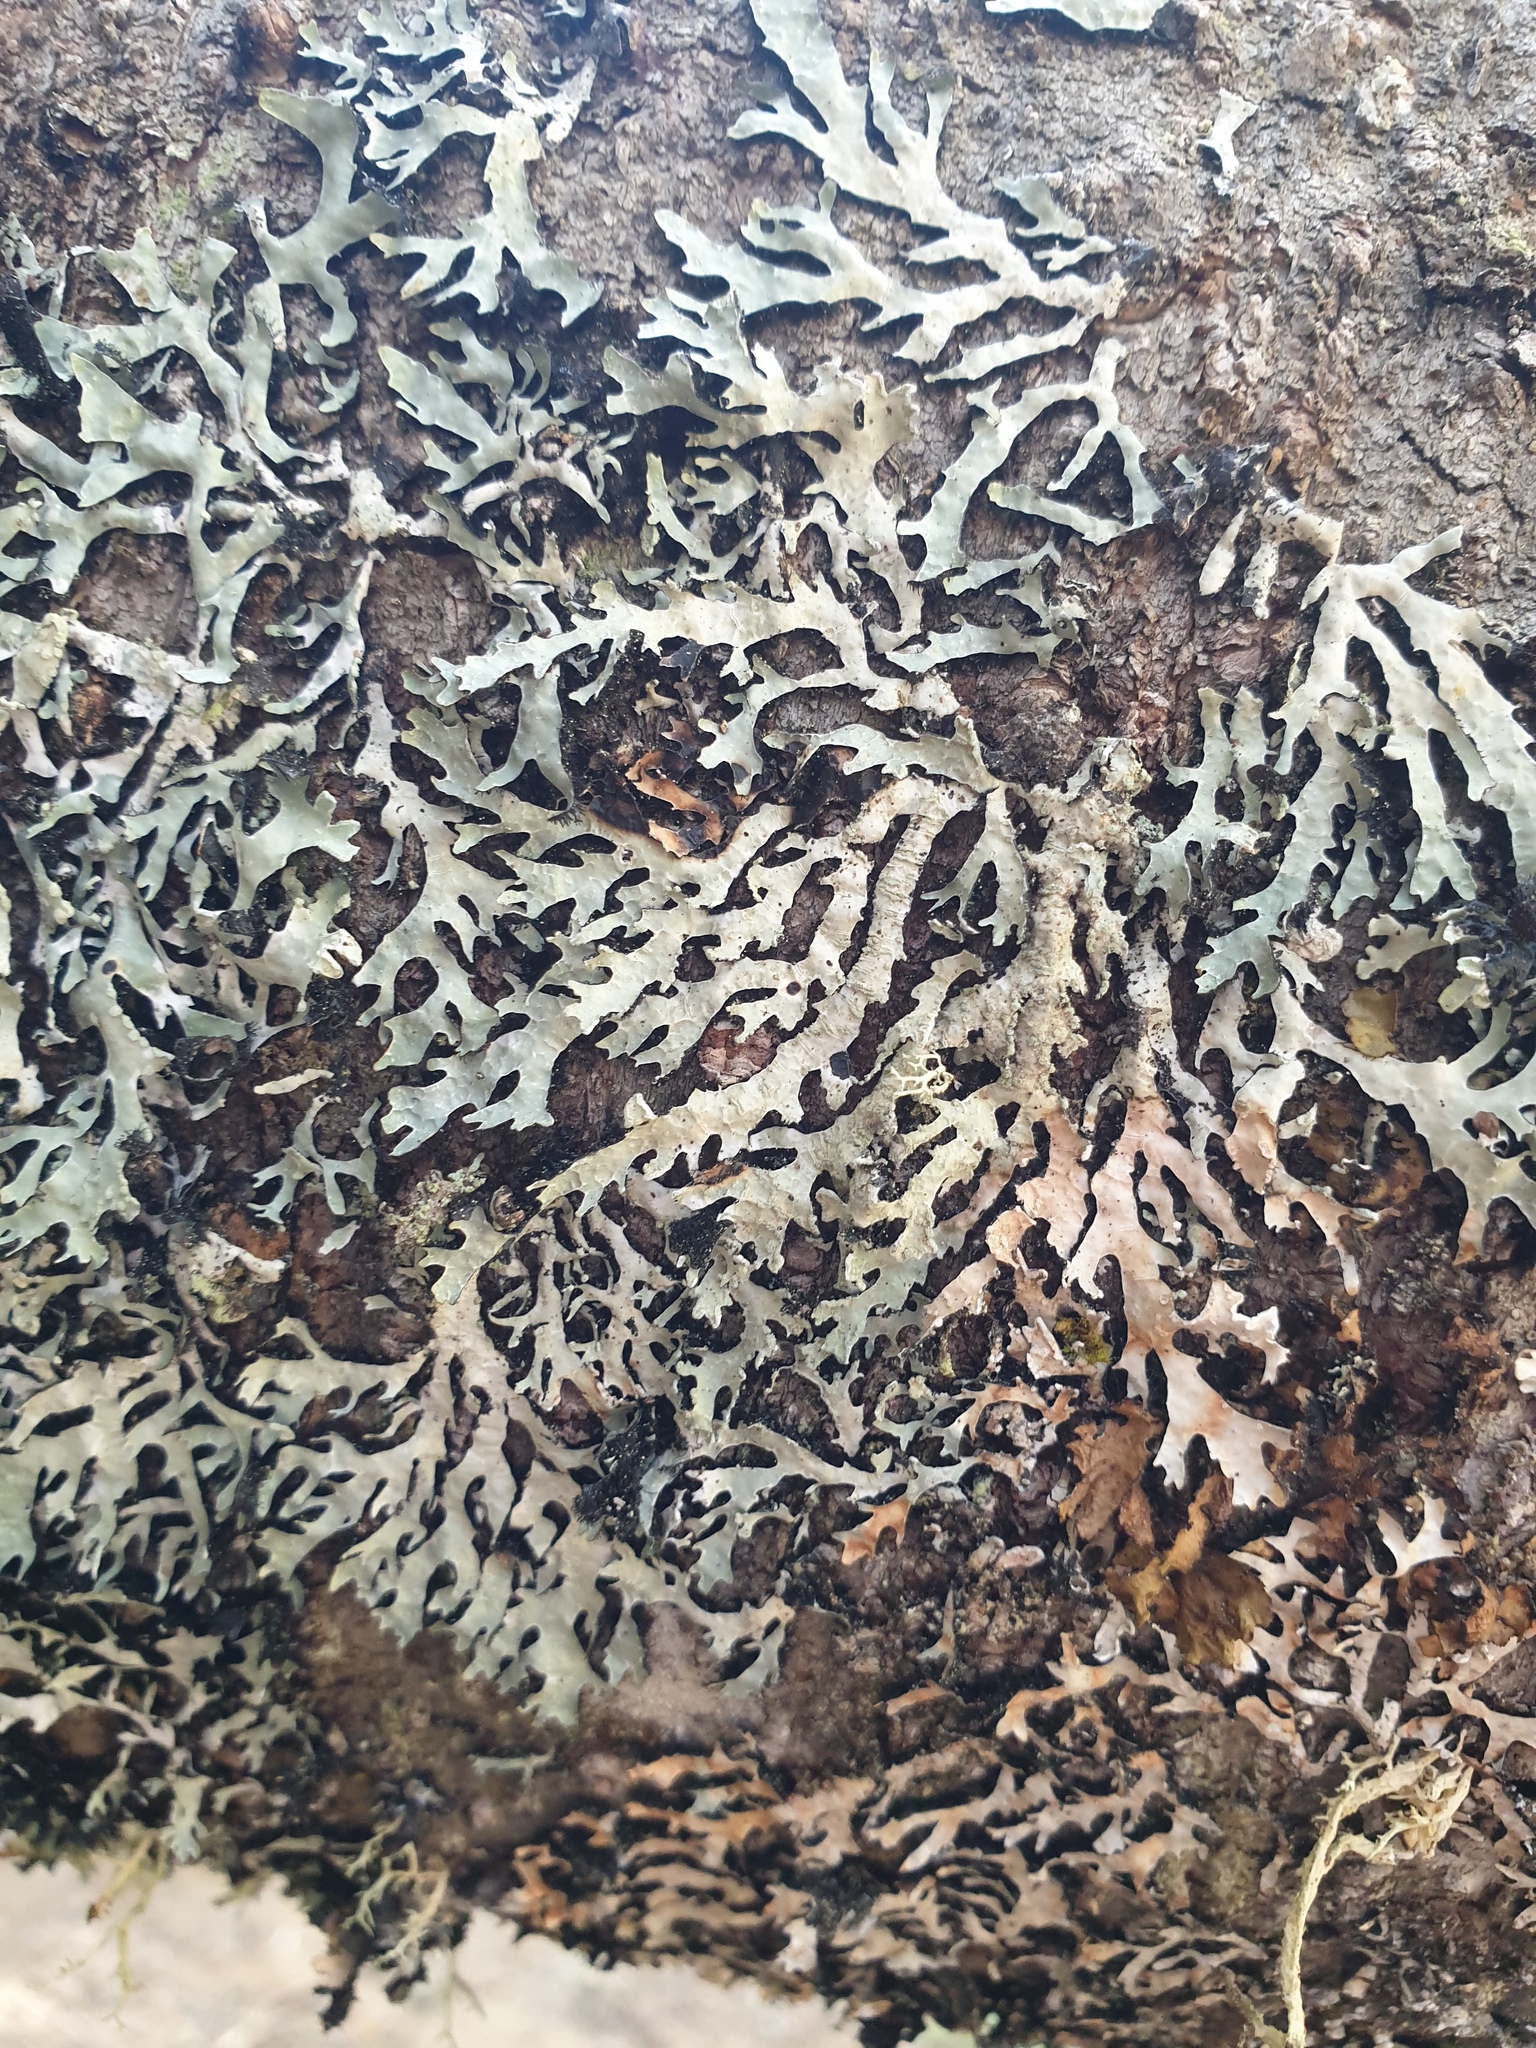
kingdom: Fungi
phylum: Ascomycota
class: Lecanoromycetes
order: Lecanorales
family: Parmeliaceae
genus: Parmelia
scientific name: Parmelia sulcata
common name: Netted shield lichen
